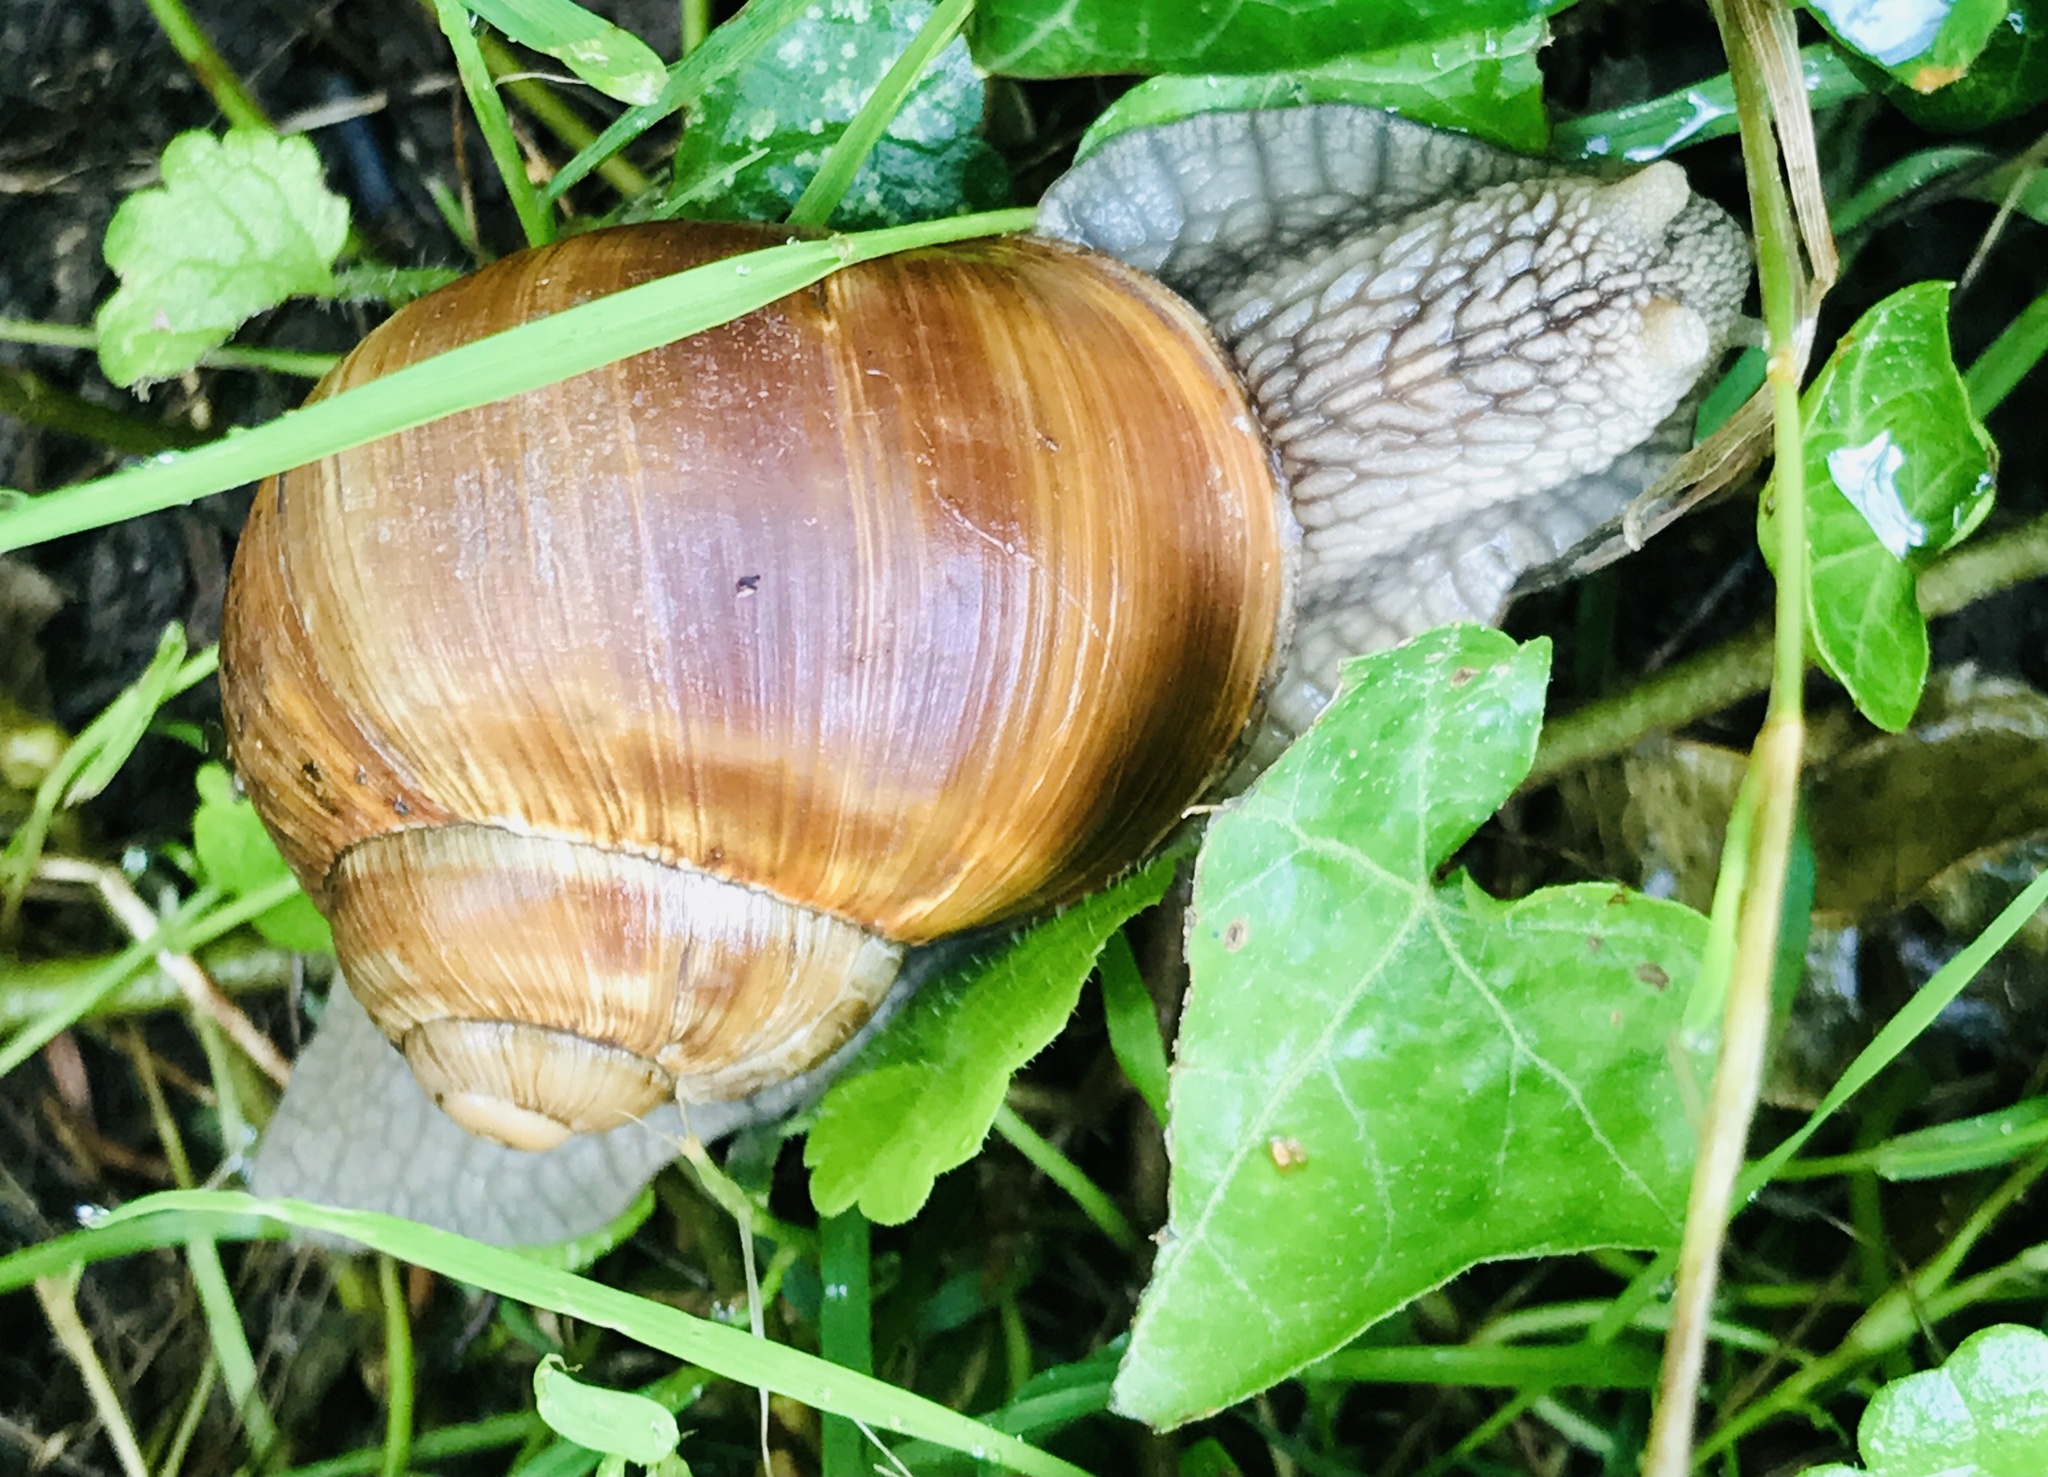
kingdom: Animalia
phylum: Mollusca
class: Gastropoda
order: Stylommatophora
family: Helicidae
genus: Helix
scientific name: Helix pomatia
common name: Roman snail
